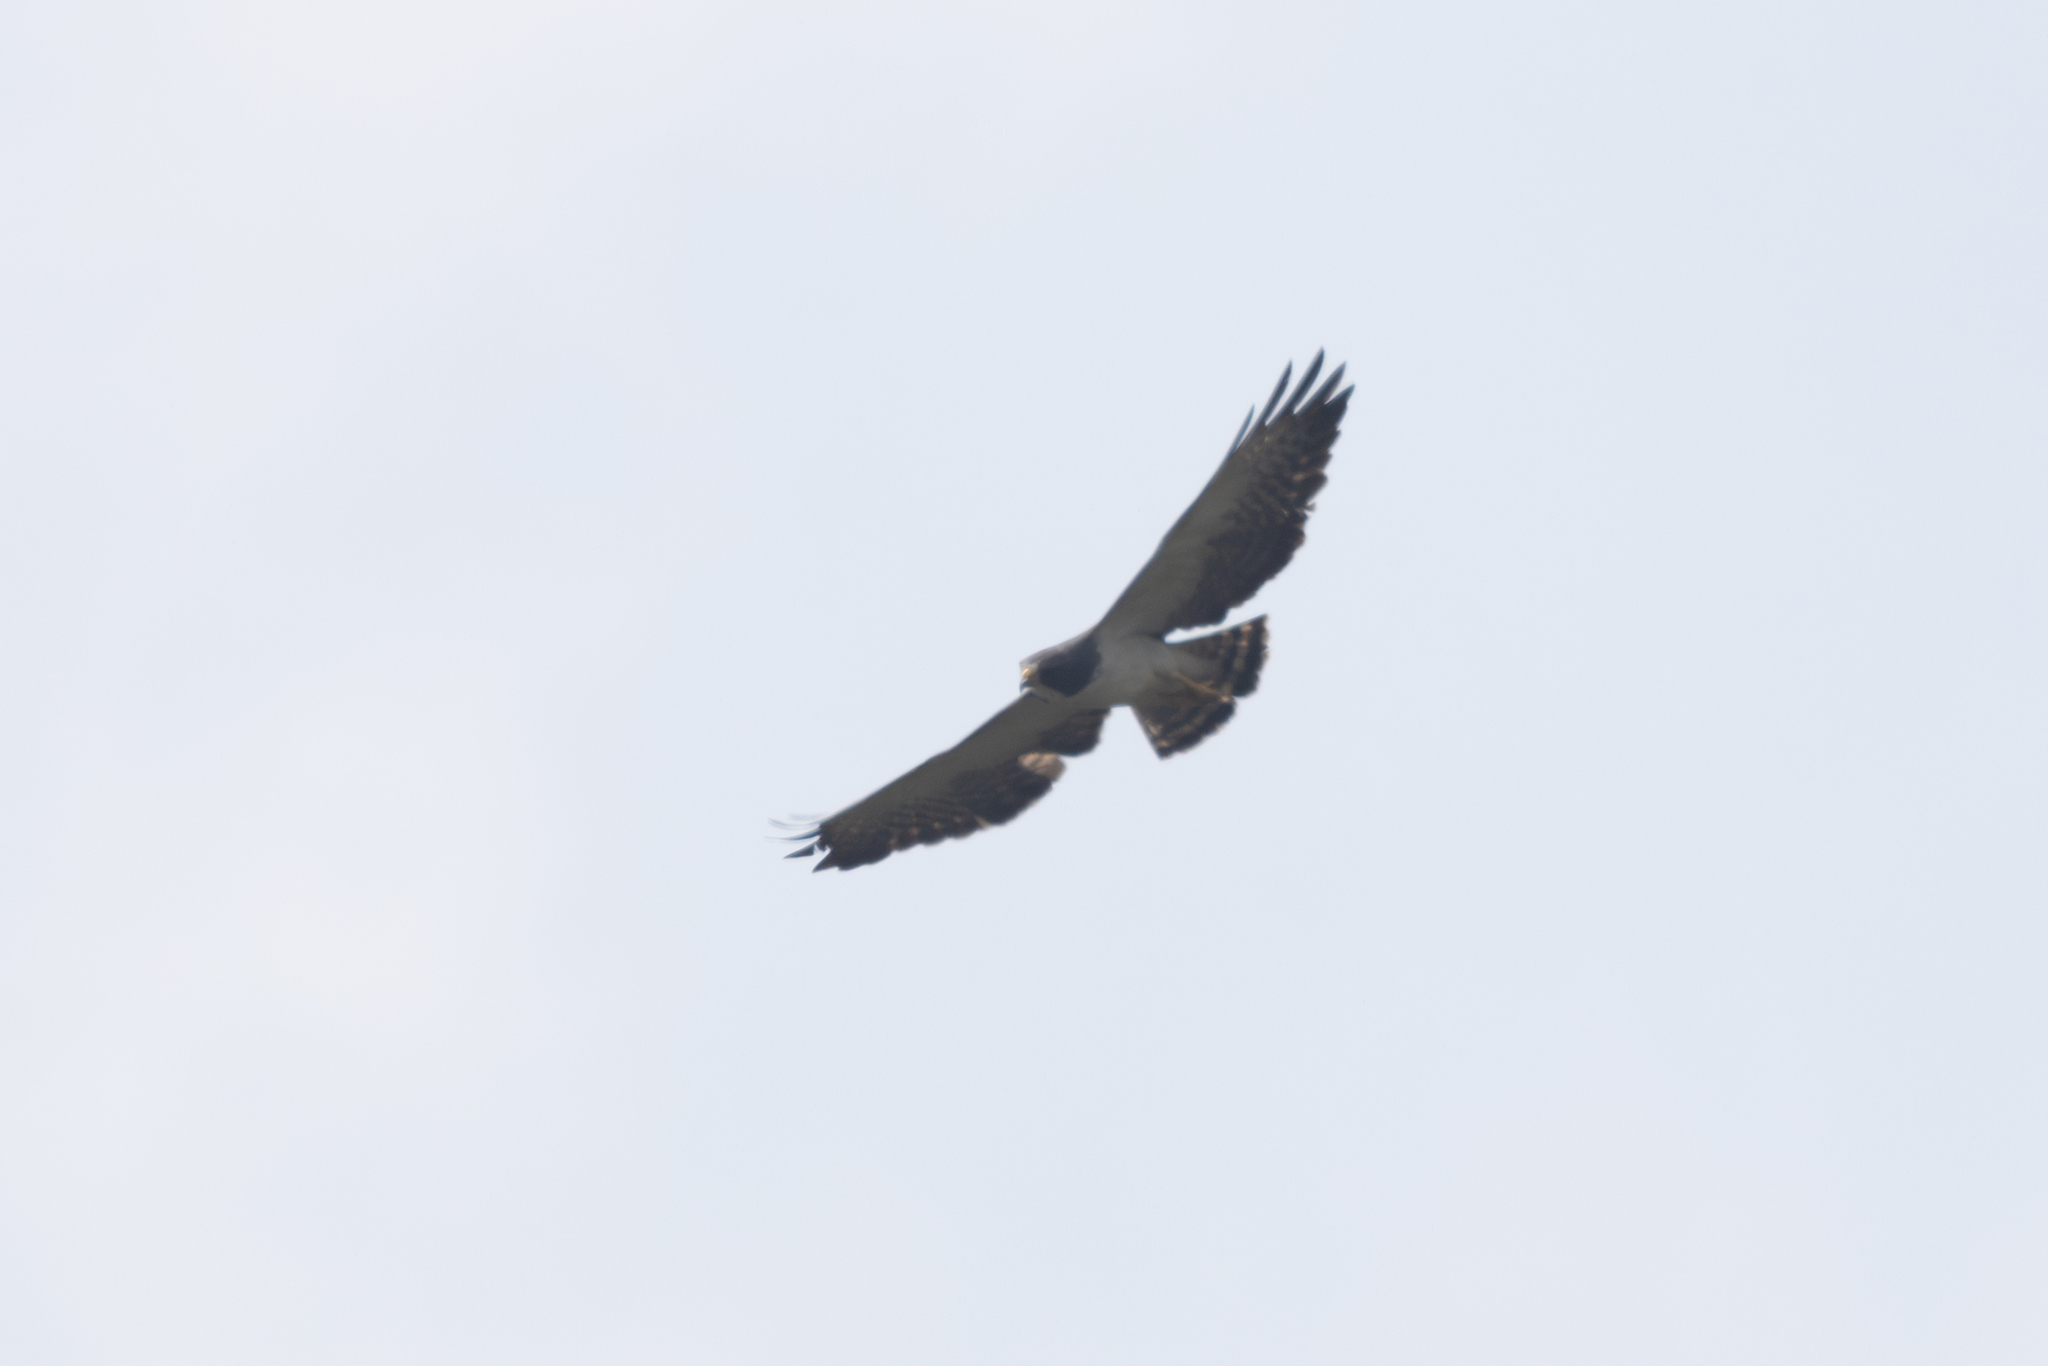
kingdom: Animalia
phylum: Chordata
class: Aves
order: Accipitriformes
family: Accipitridae
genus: Buteo
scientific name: Buteo brachyurus
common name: Short-tailed hawk
